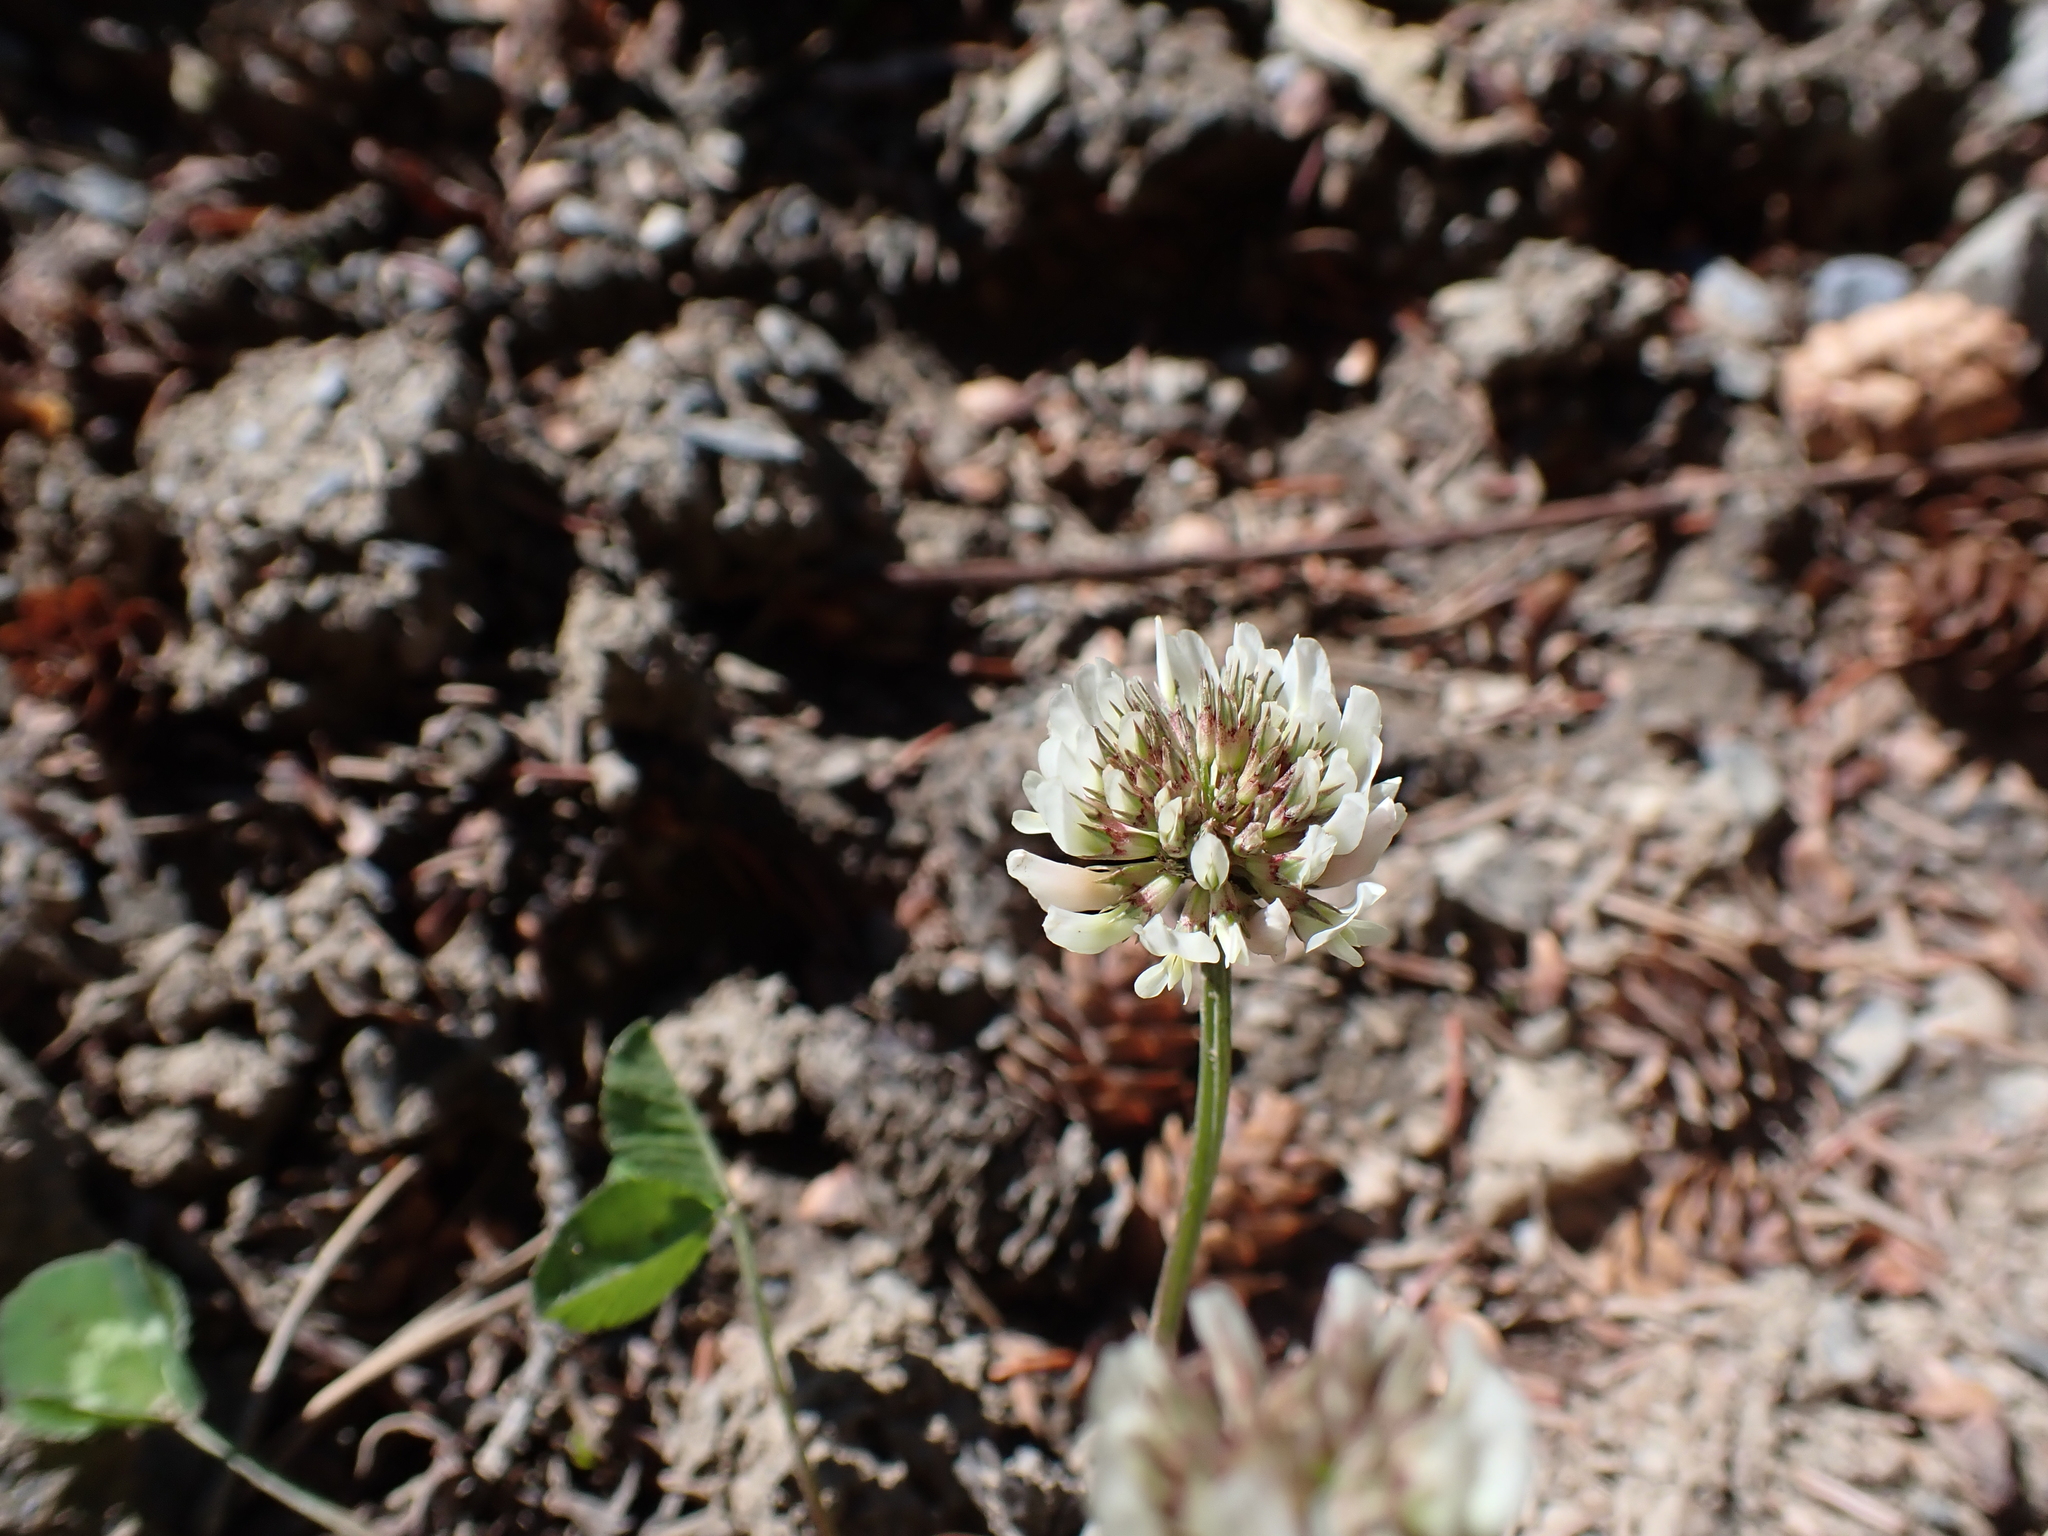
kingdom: Plantae
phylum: Tracheophyta
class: Magnoliopsida
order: Fabales
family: Fabaceae
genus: Trifolium
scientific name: Trifolium repens
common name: White clover
